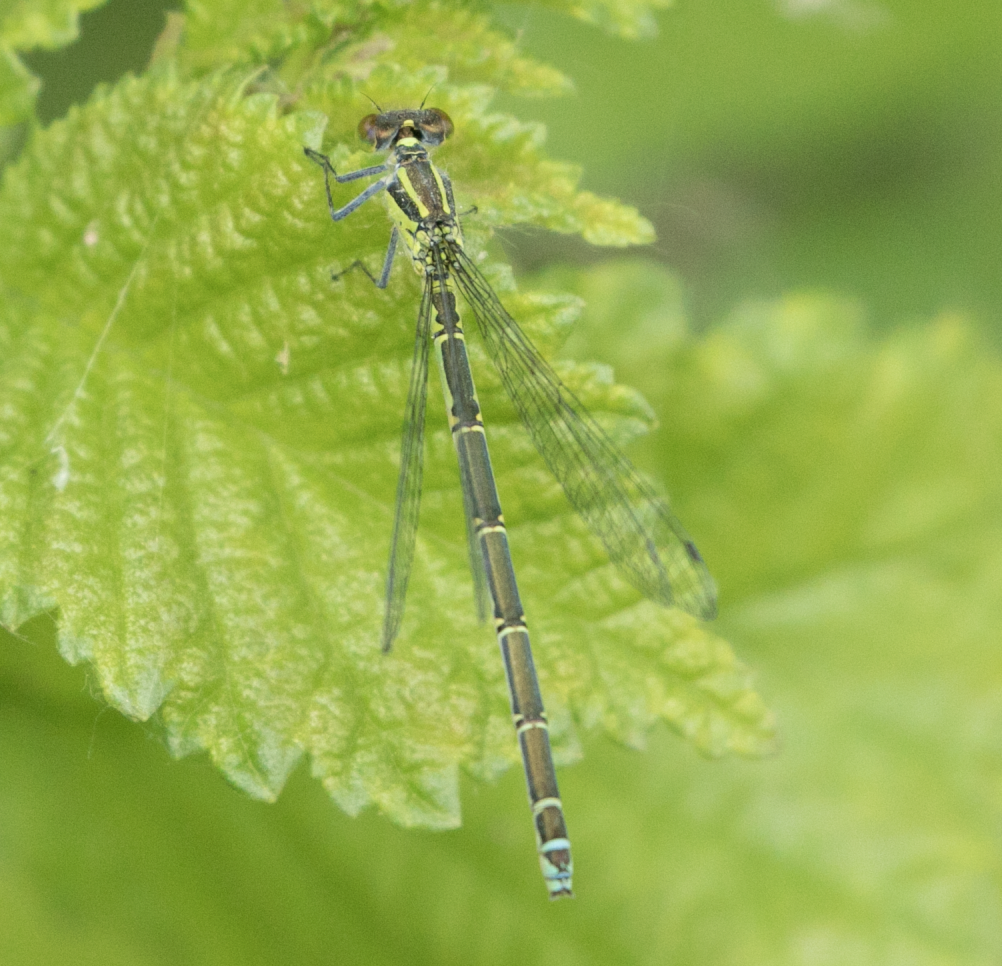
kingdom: Animalia
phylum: Arthropoda
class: Insecta
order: Odonata
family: Coenagrionidae
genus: Erythromma
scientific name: Erythromma viridulum
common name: Small red-eyed damselfly
